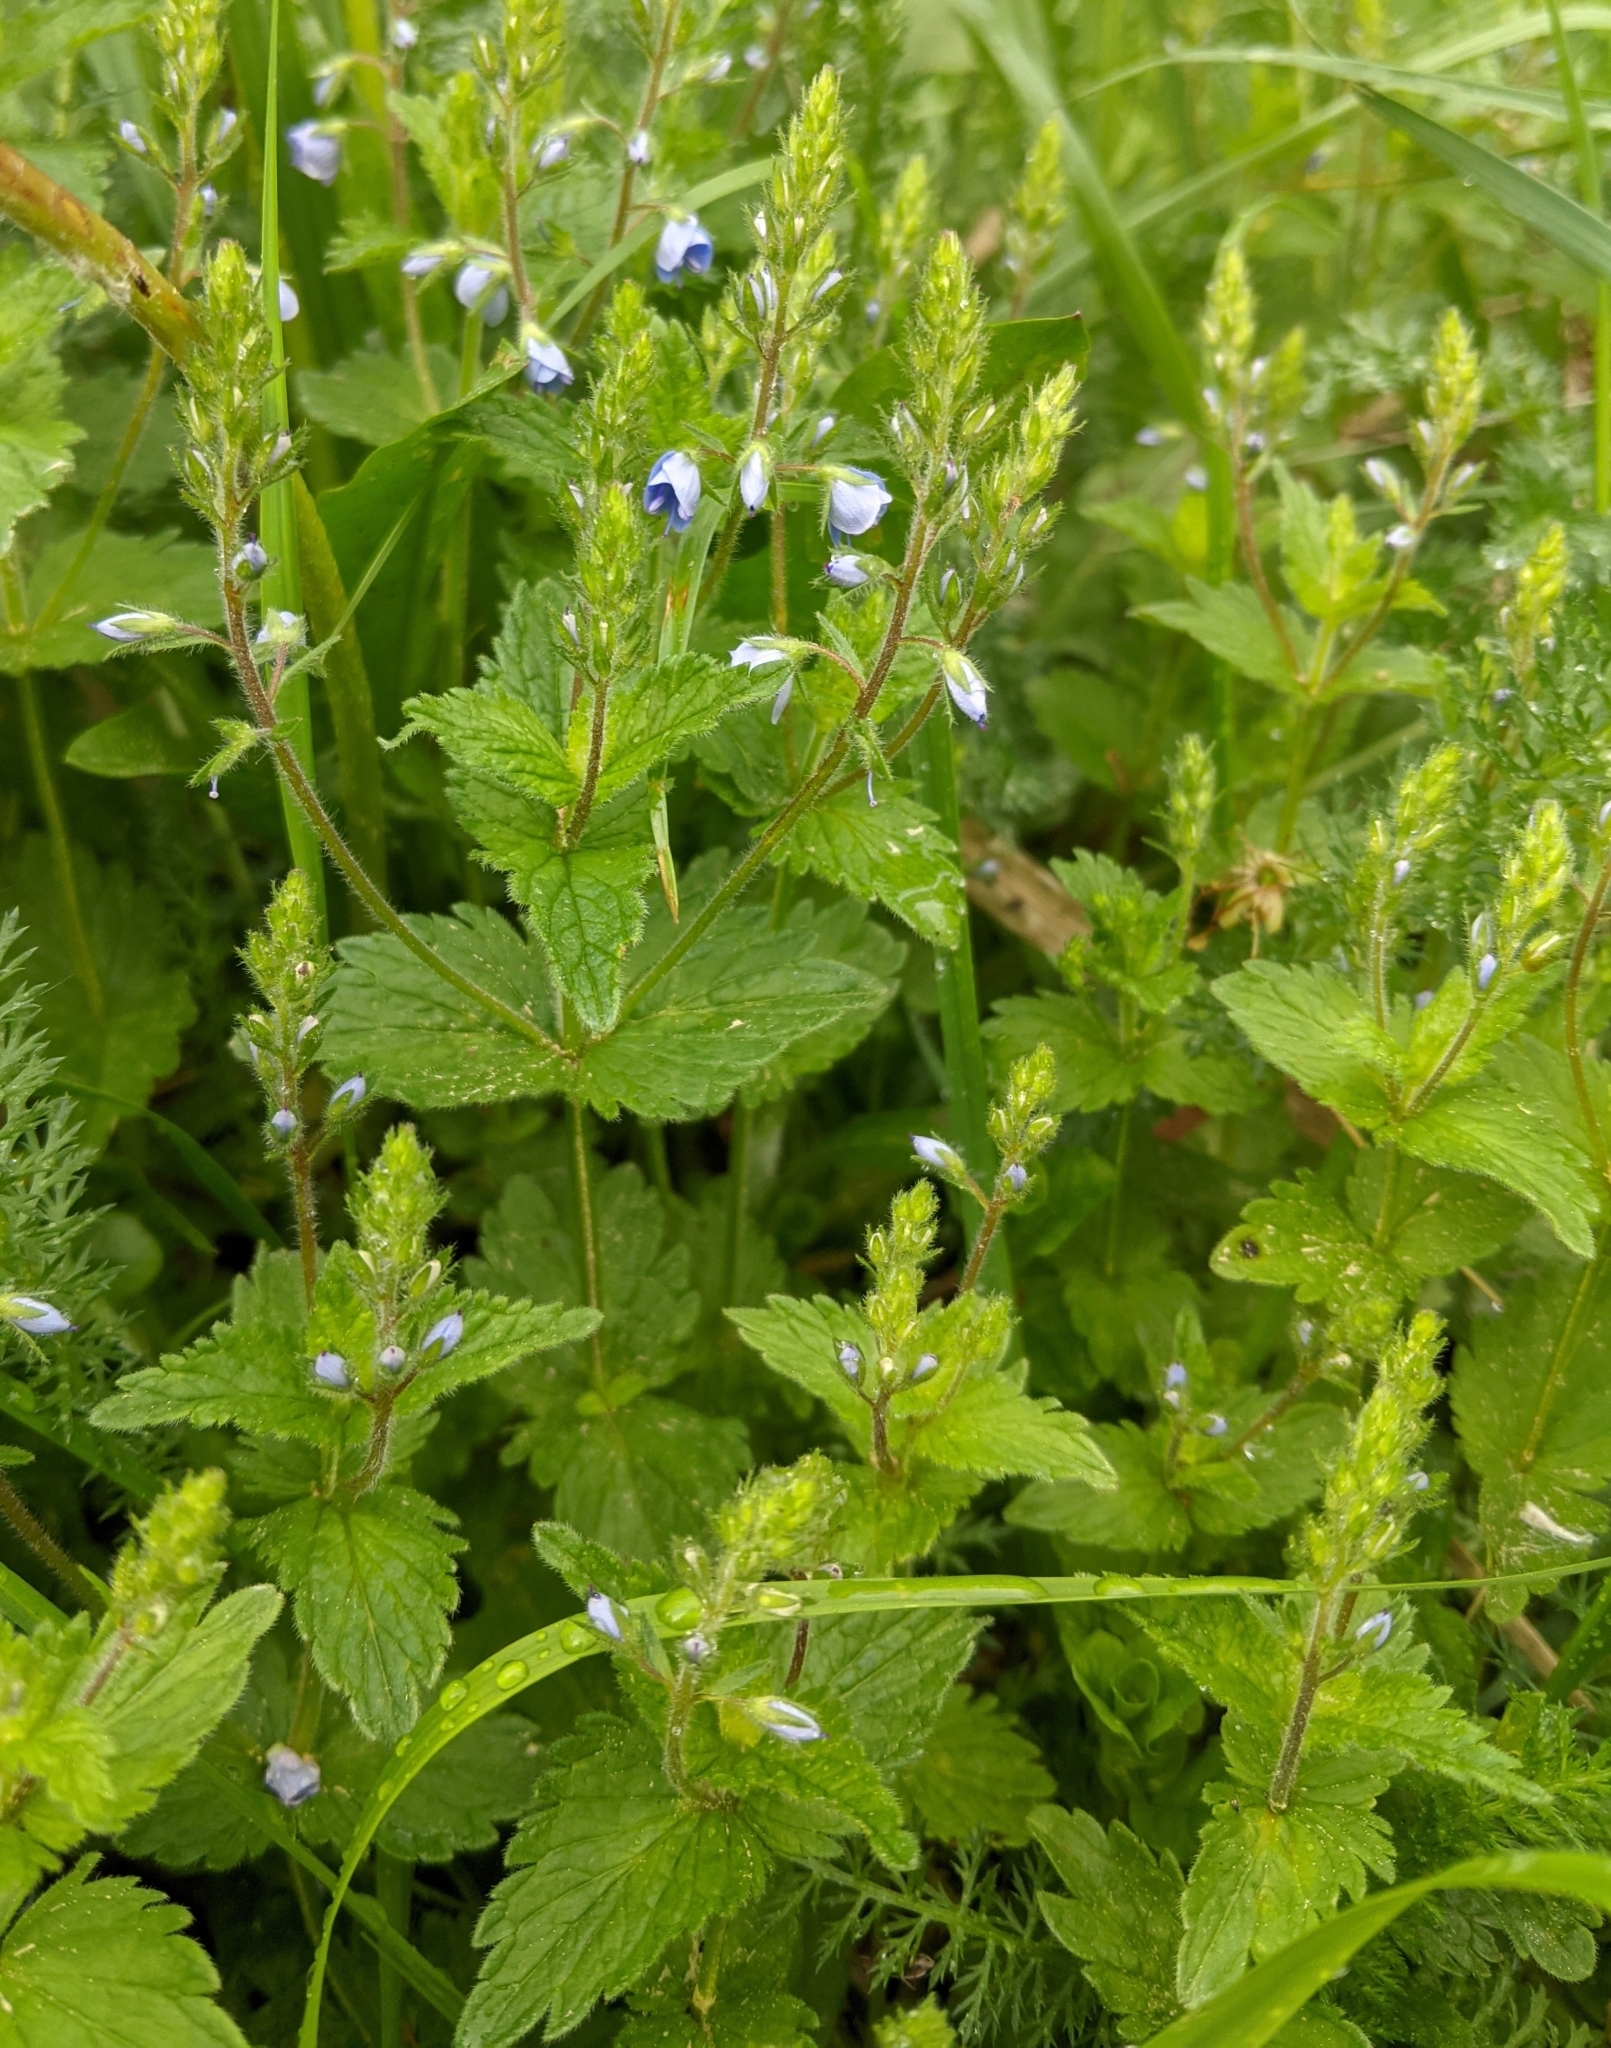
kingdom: Plantae
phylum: Tracheophyta
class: Magnoliopsida
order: Lamiales
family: Plantaginaceae
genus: Veronica
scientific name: Veronica chamaedrys
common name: Germander speedwell
